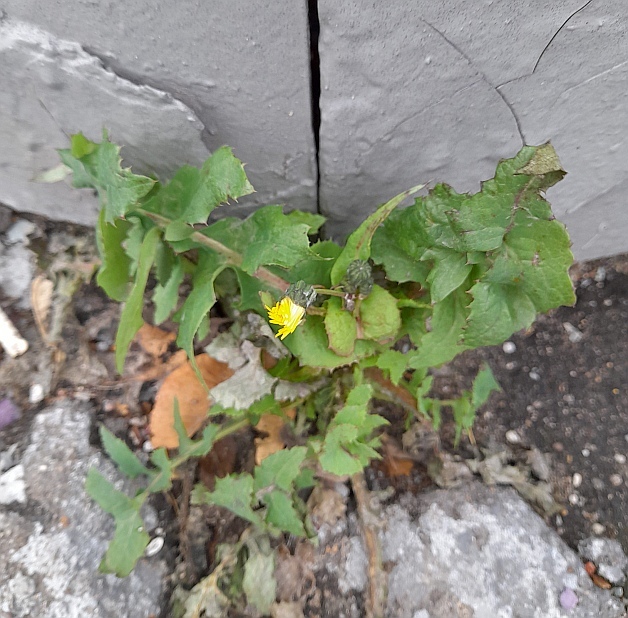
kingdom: Plantae
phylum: Tracheophyta
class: Magnoliopsida
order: Asterales
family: Asteraceae
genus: Sonchus
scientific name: Sonchus oleraceus
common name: Common sowthistle
